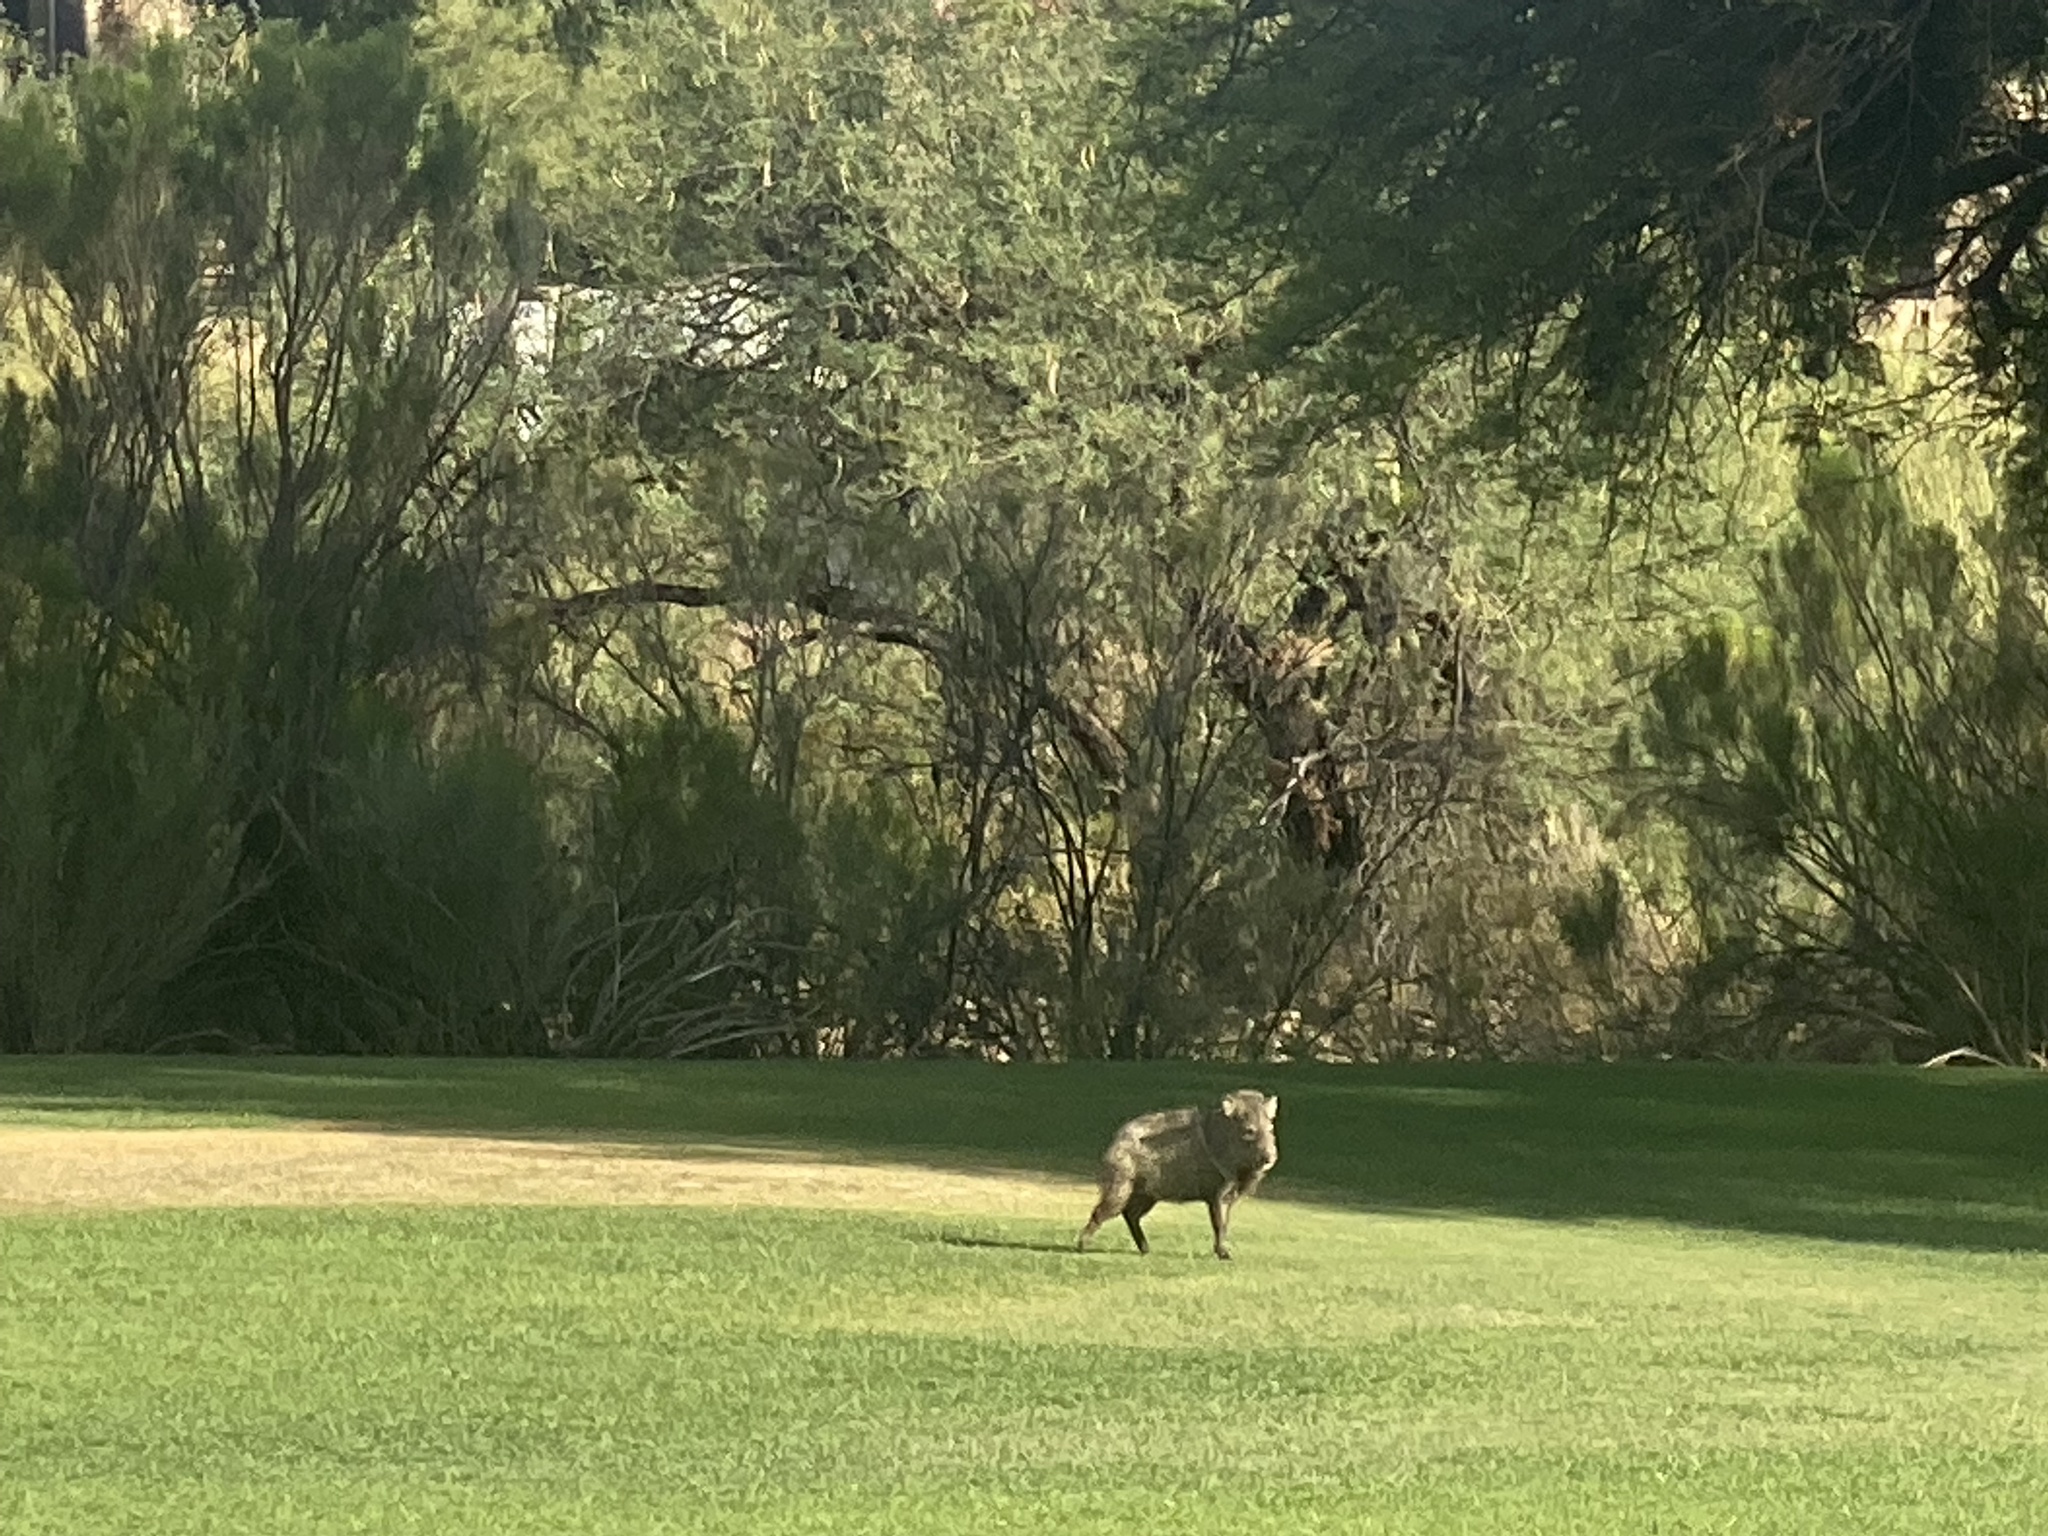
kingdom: Animalia
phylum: Chordata
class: Mammalia
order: Artiodactyla
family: Tayassuidae
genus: Pecari
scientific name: Pecari tajacu
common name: Collared peccary
